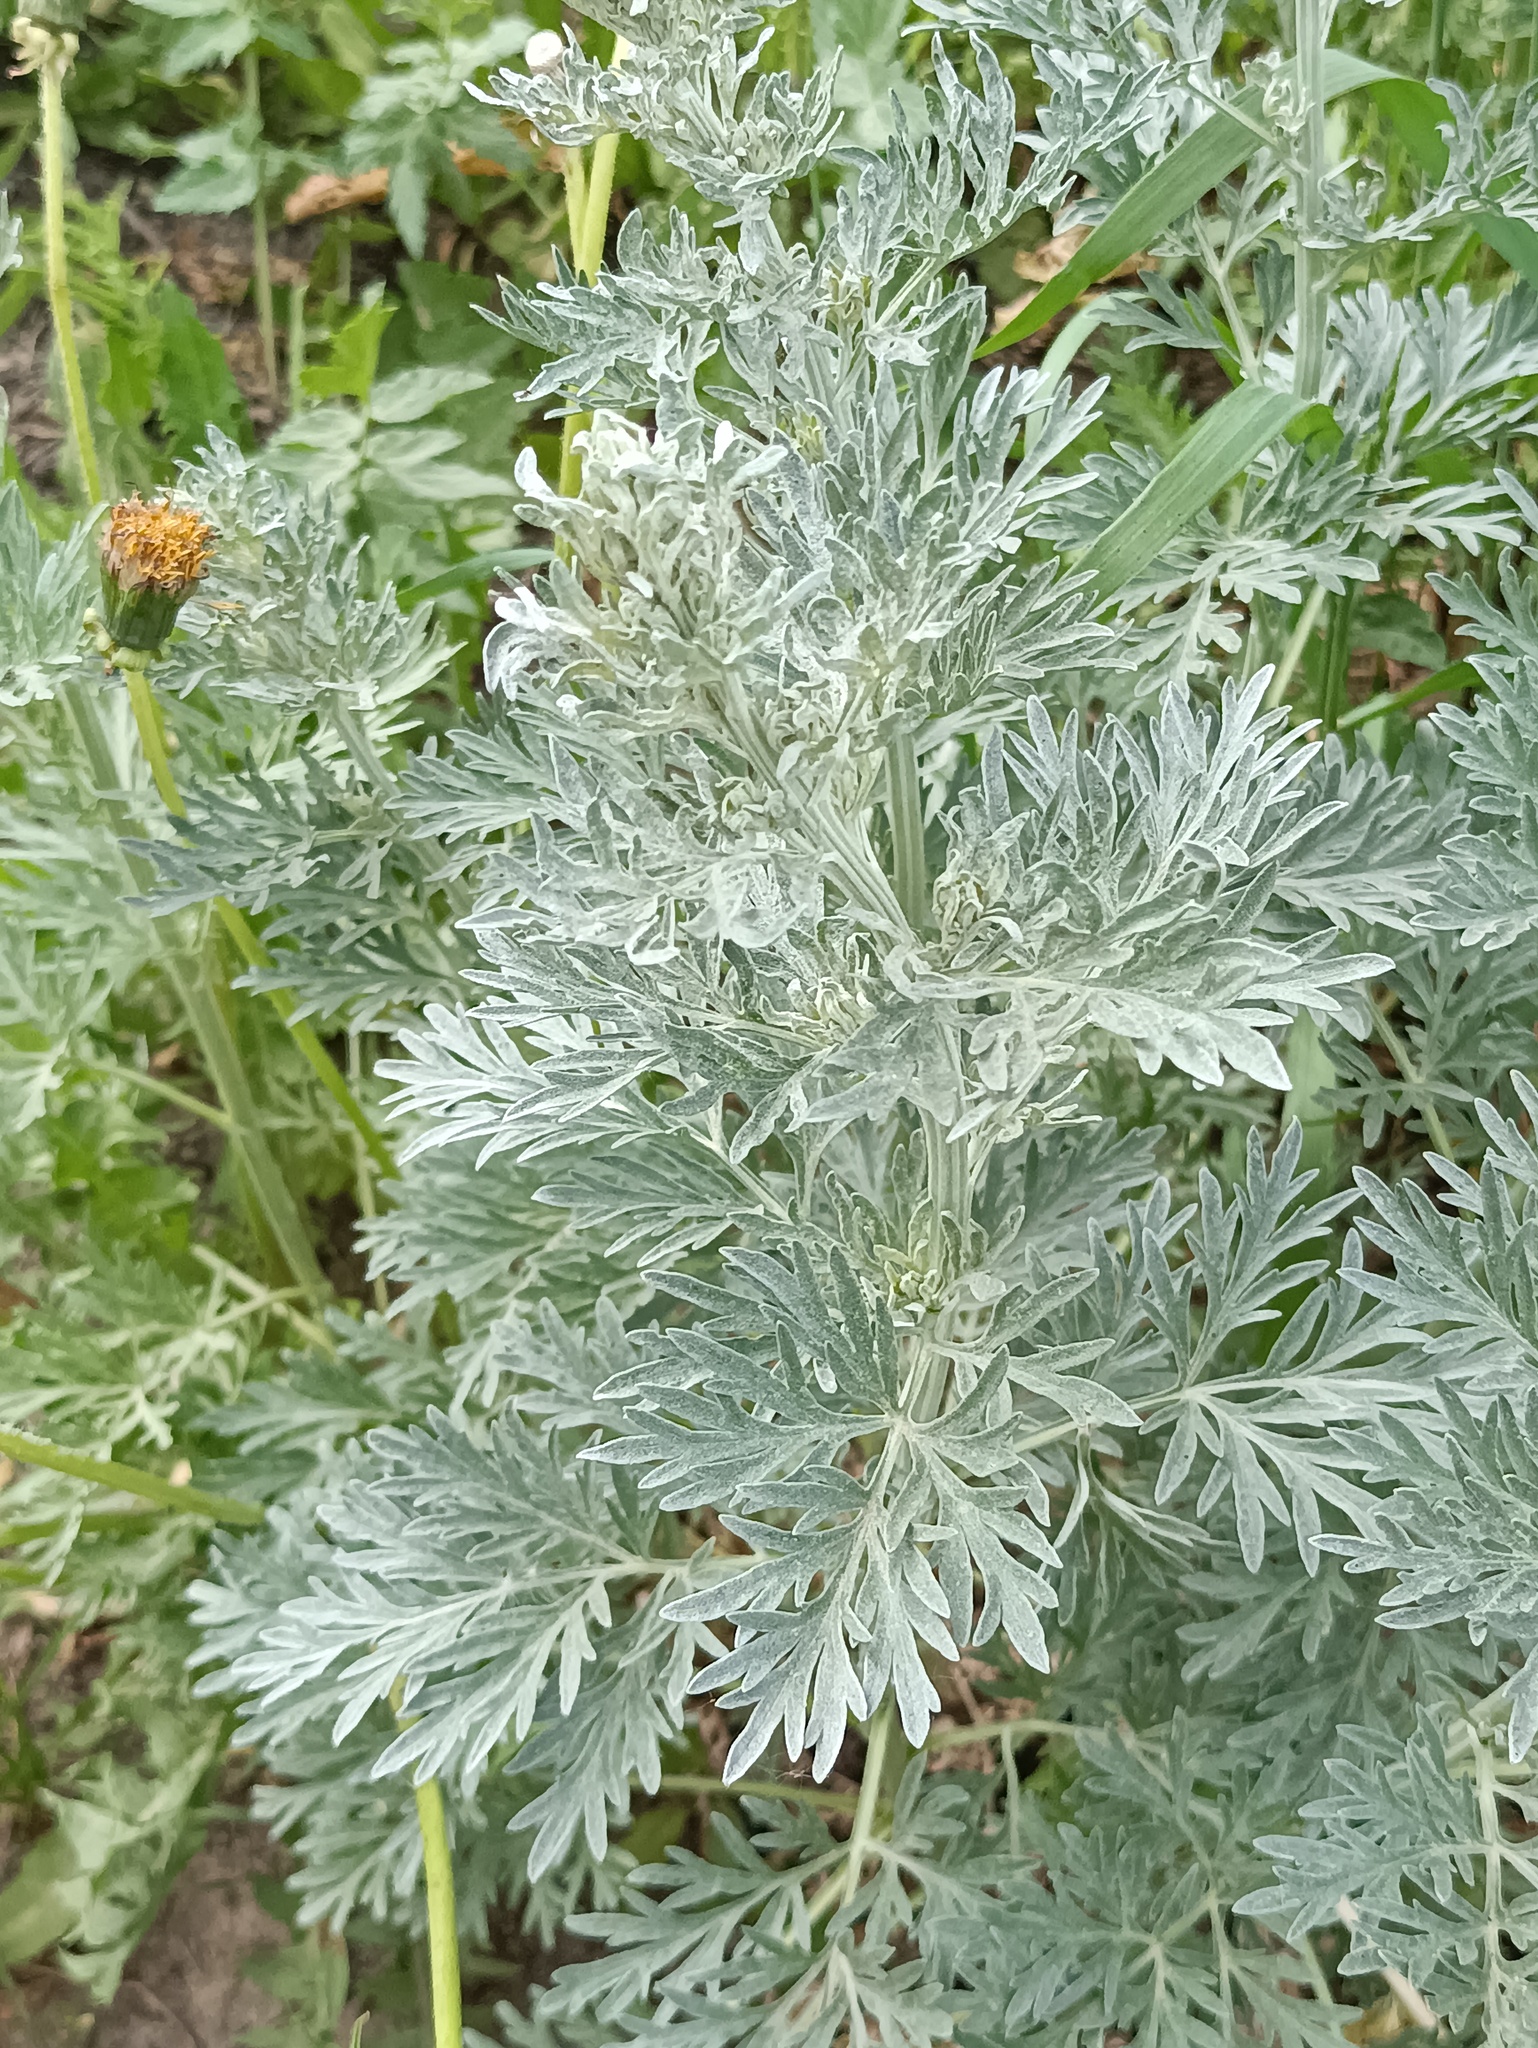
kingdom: Plantae
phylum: Tracheophyta
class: Magnoliopsida
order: Asterales
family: Asteraceae
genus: Artemisia
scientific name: Artemisia absinthium
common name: Wormwood
